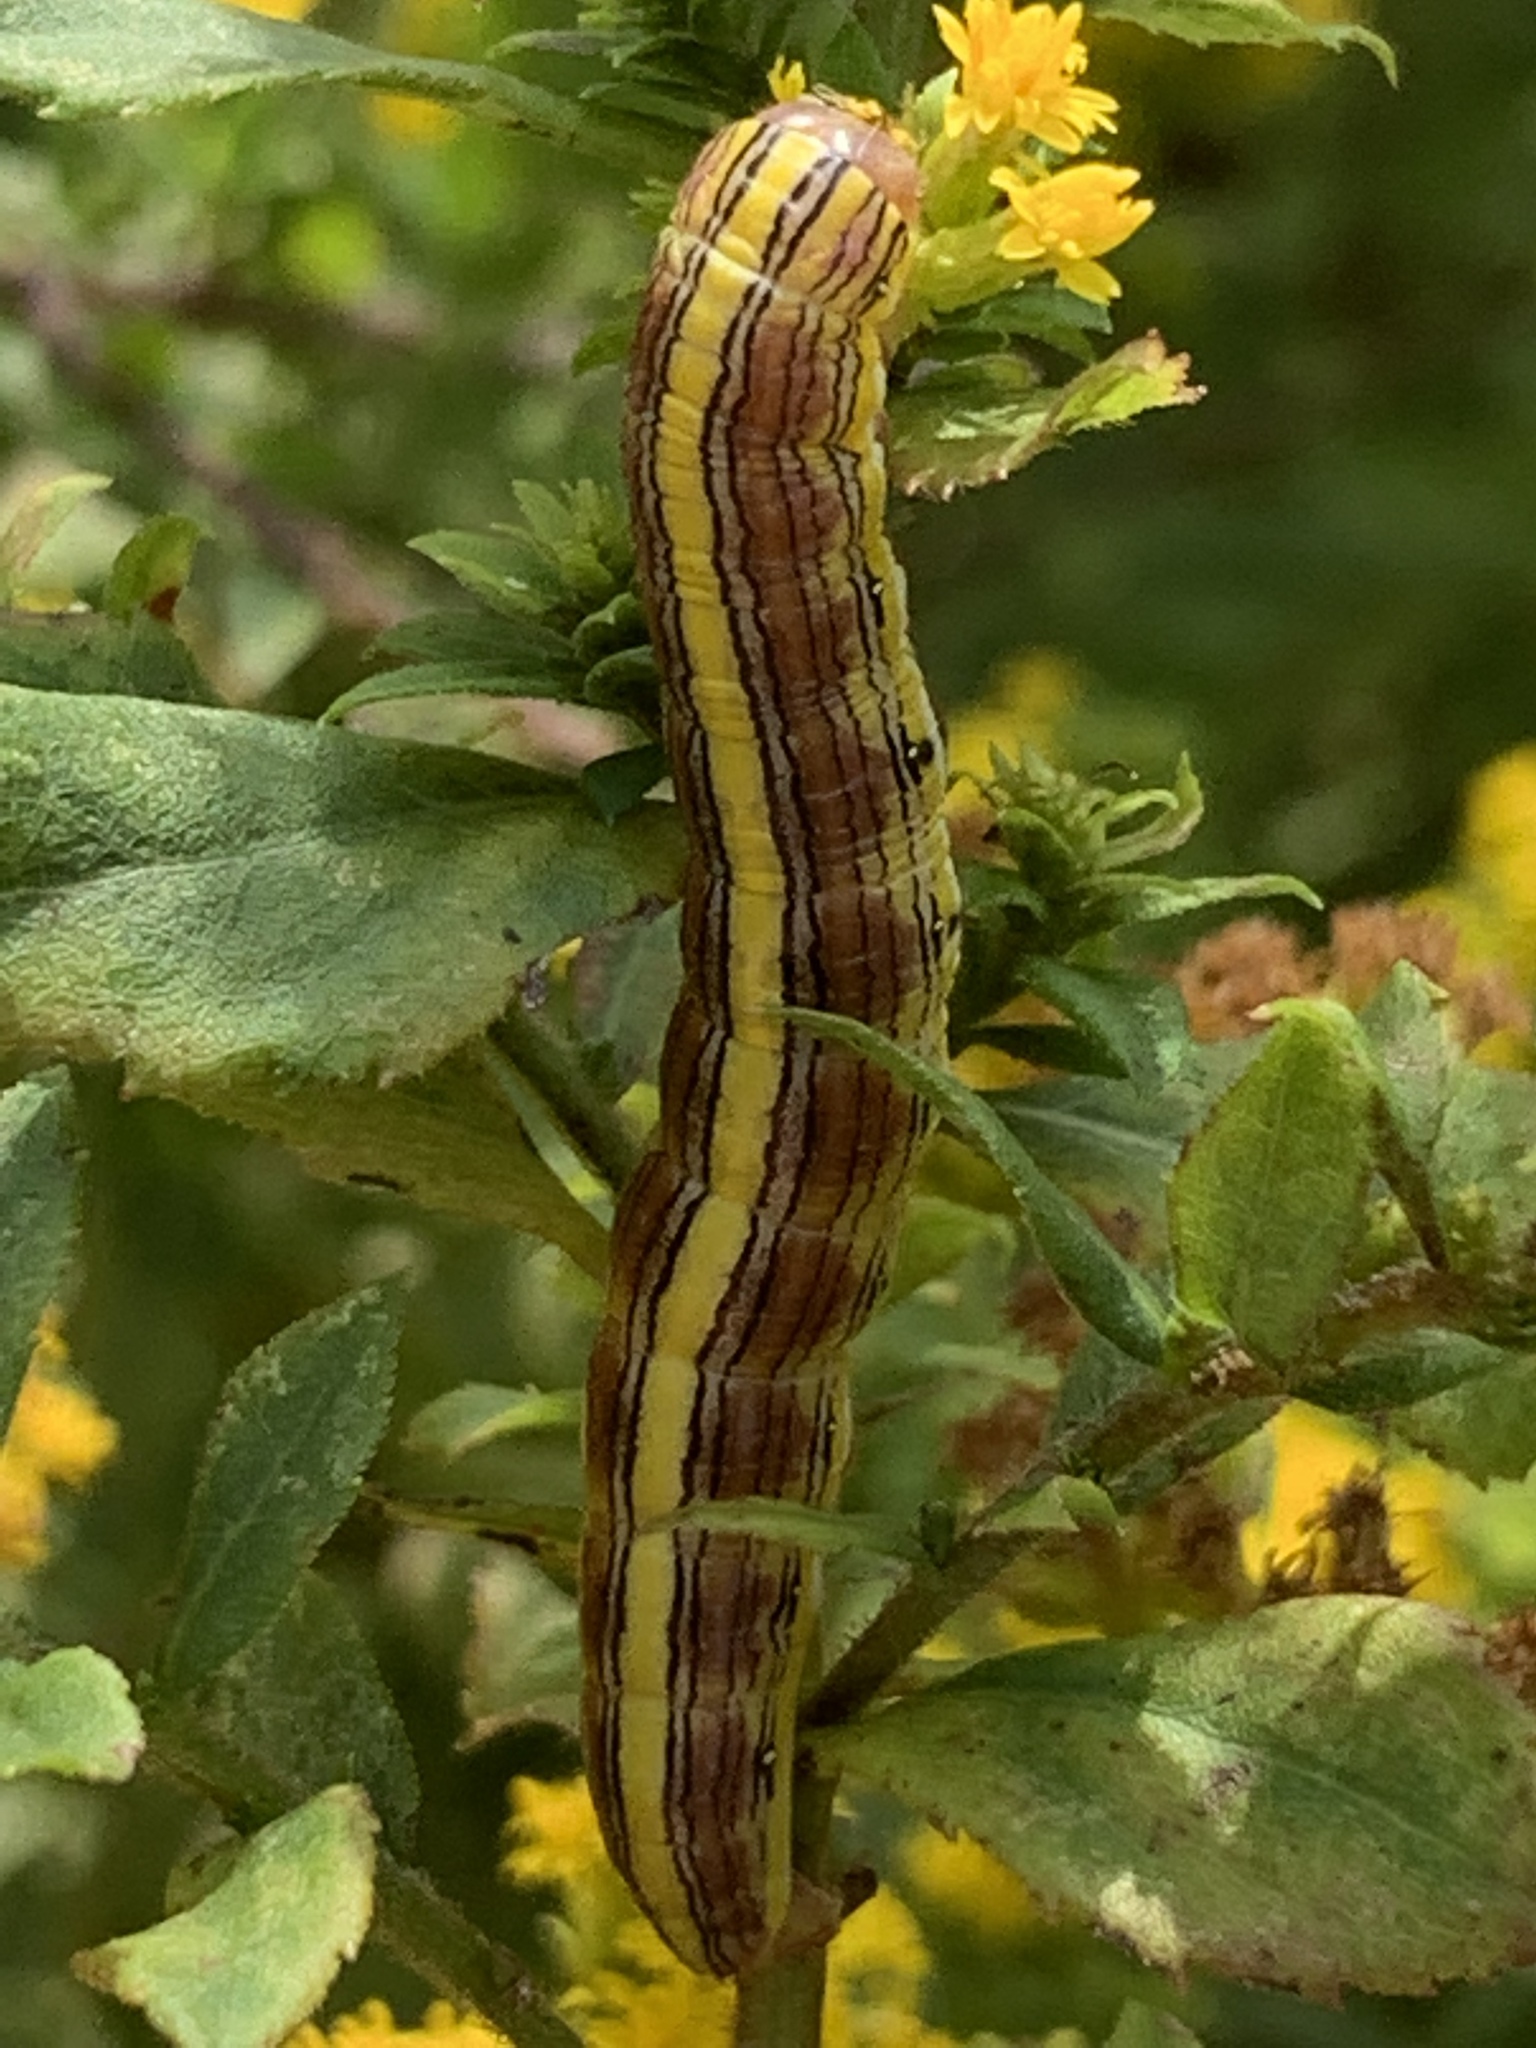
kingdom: Animalia
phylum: Arthropoda
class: Insecta
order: Lepidoptera
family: Noctuidae
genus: Cucullia
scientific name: Cucullia asteroides
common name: Asteroid moth
